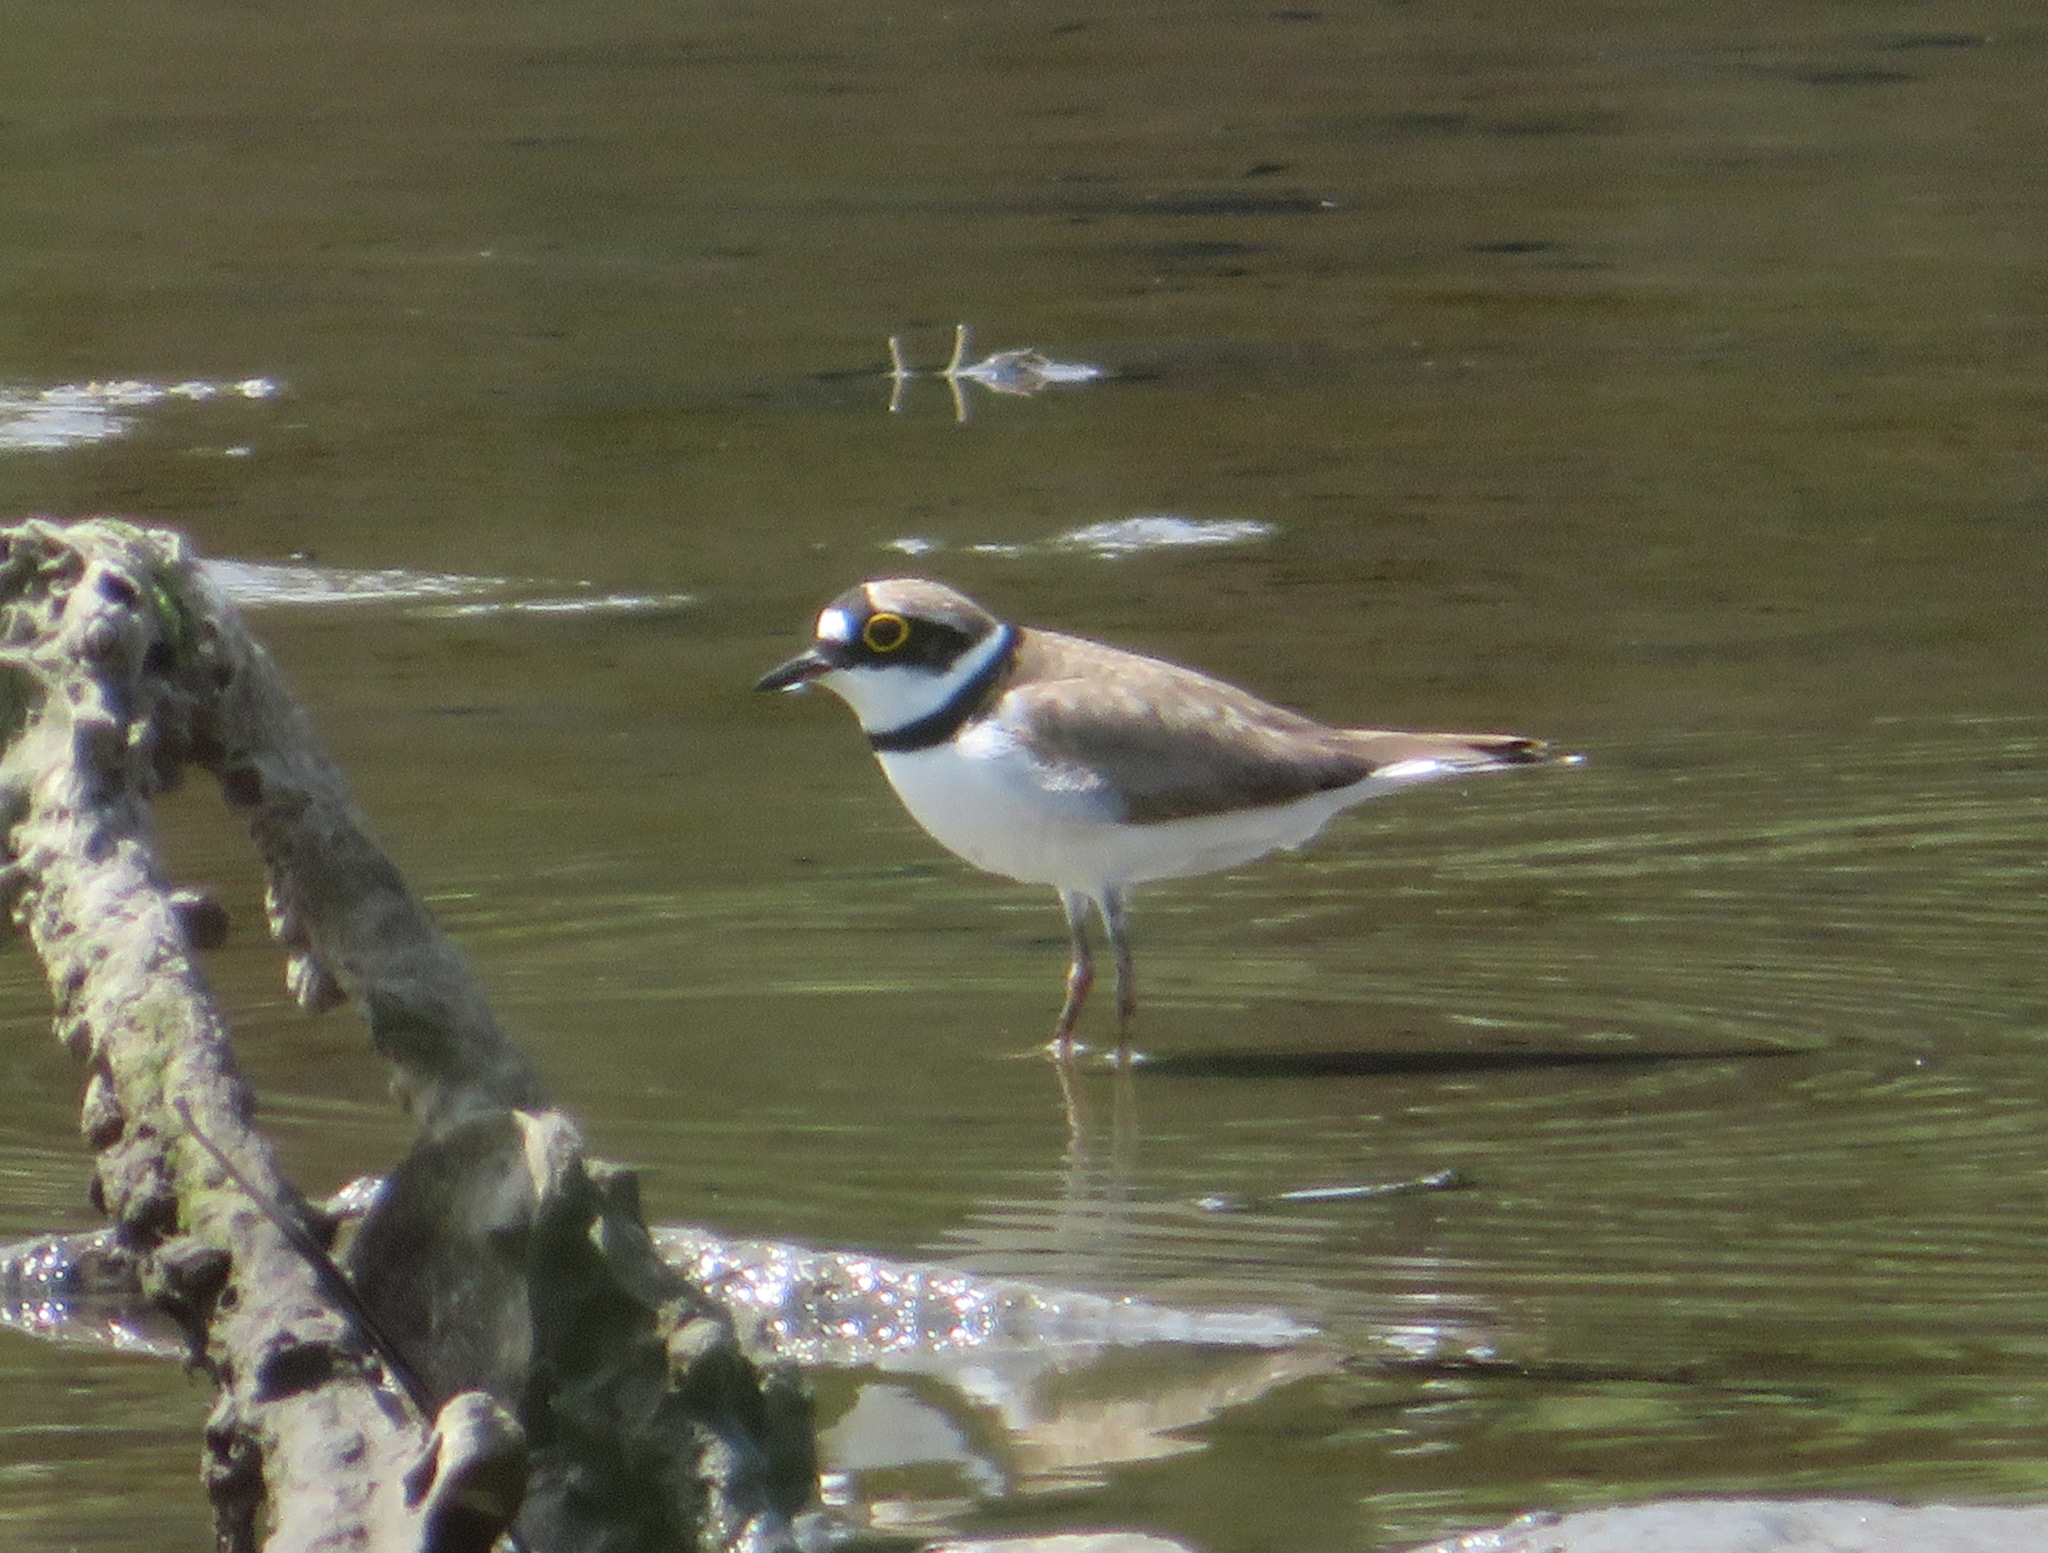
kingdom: Animalia
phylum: Chordata
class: Aves
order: Charadriiformes
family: Charadriidae
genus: Charadrius
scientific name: Charadrius dubius
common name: Little ringed plover
